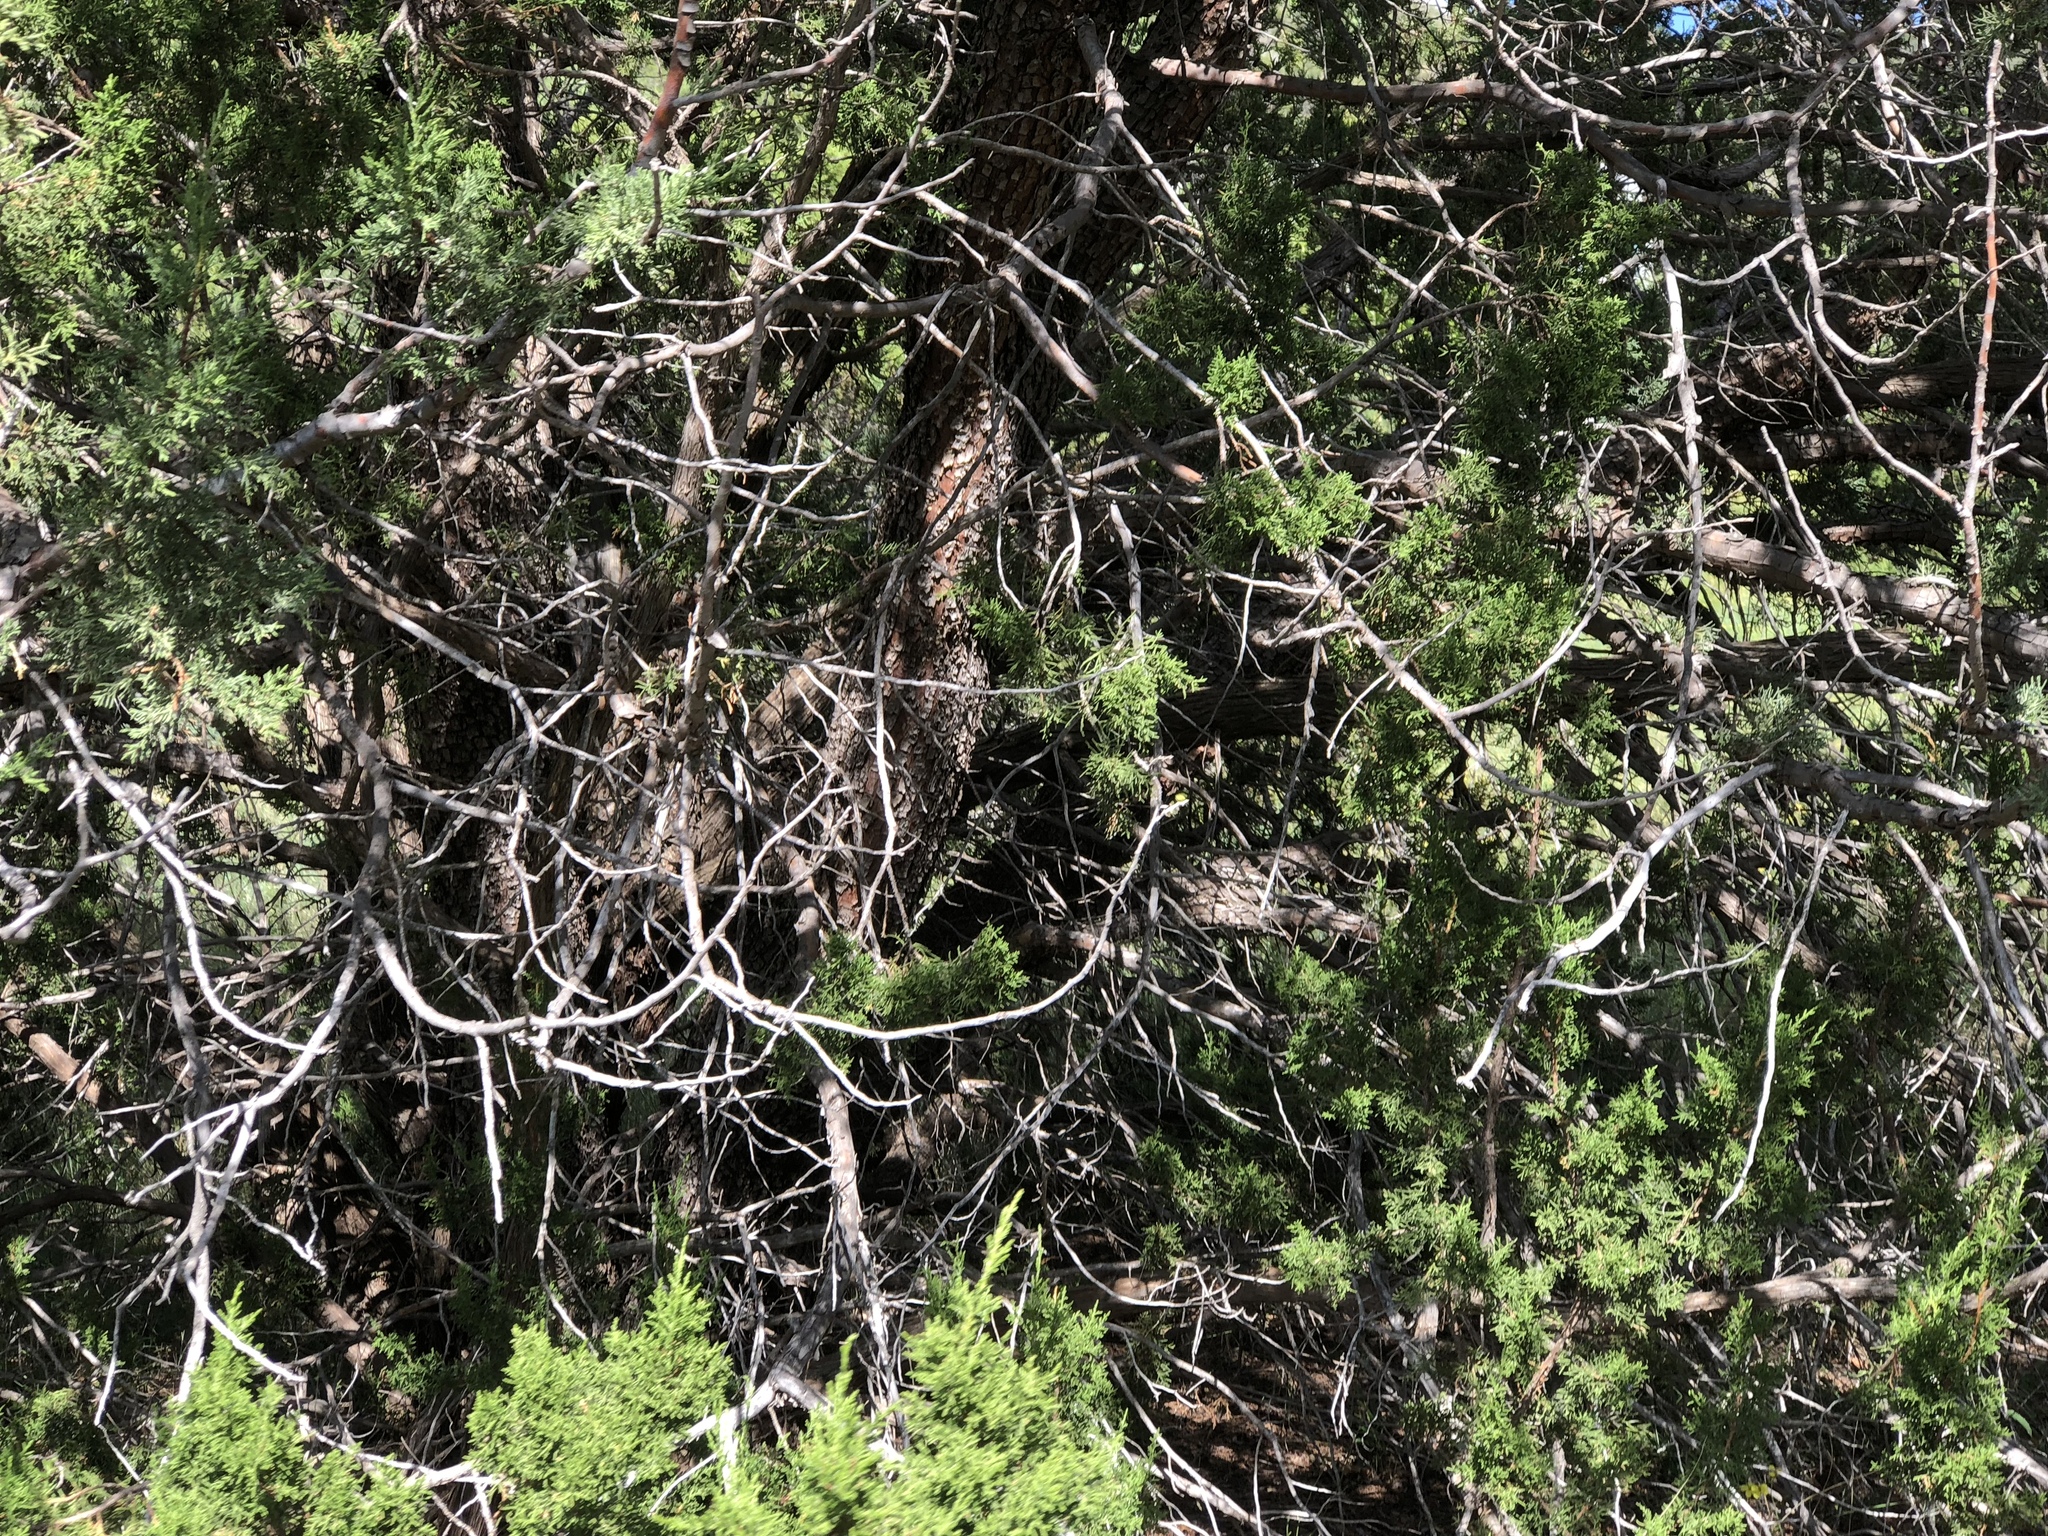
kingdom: Plantae
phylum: Tracheophyta
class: Pinopsida
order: Pinales
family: Cupressaceae
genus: Juniperus
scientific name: Juniperus deppeana
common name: Alligator juniper
